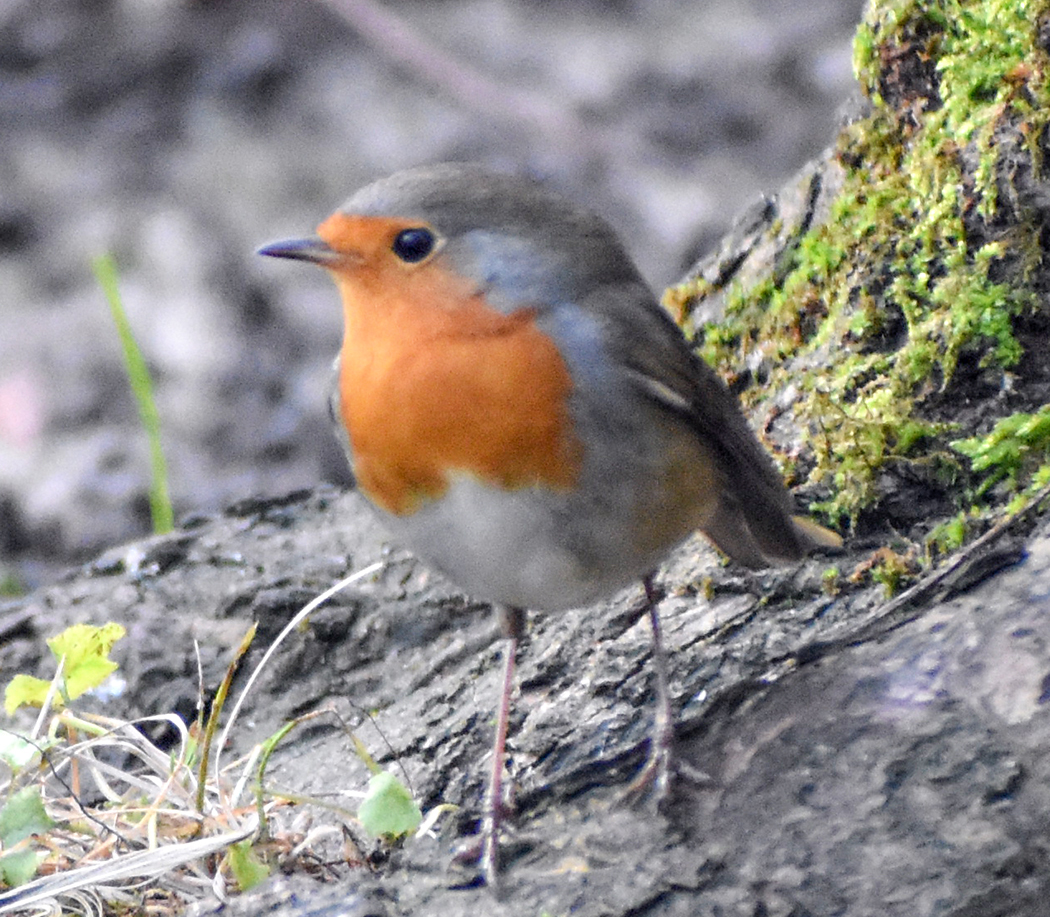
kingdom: Animalia
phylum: Chordata
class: Aves
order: Passeriformes
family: Muscicapidae
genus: Erithacus
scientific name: Erithacus rubecula
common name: European robin
